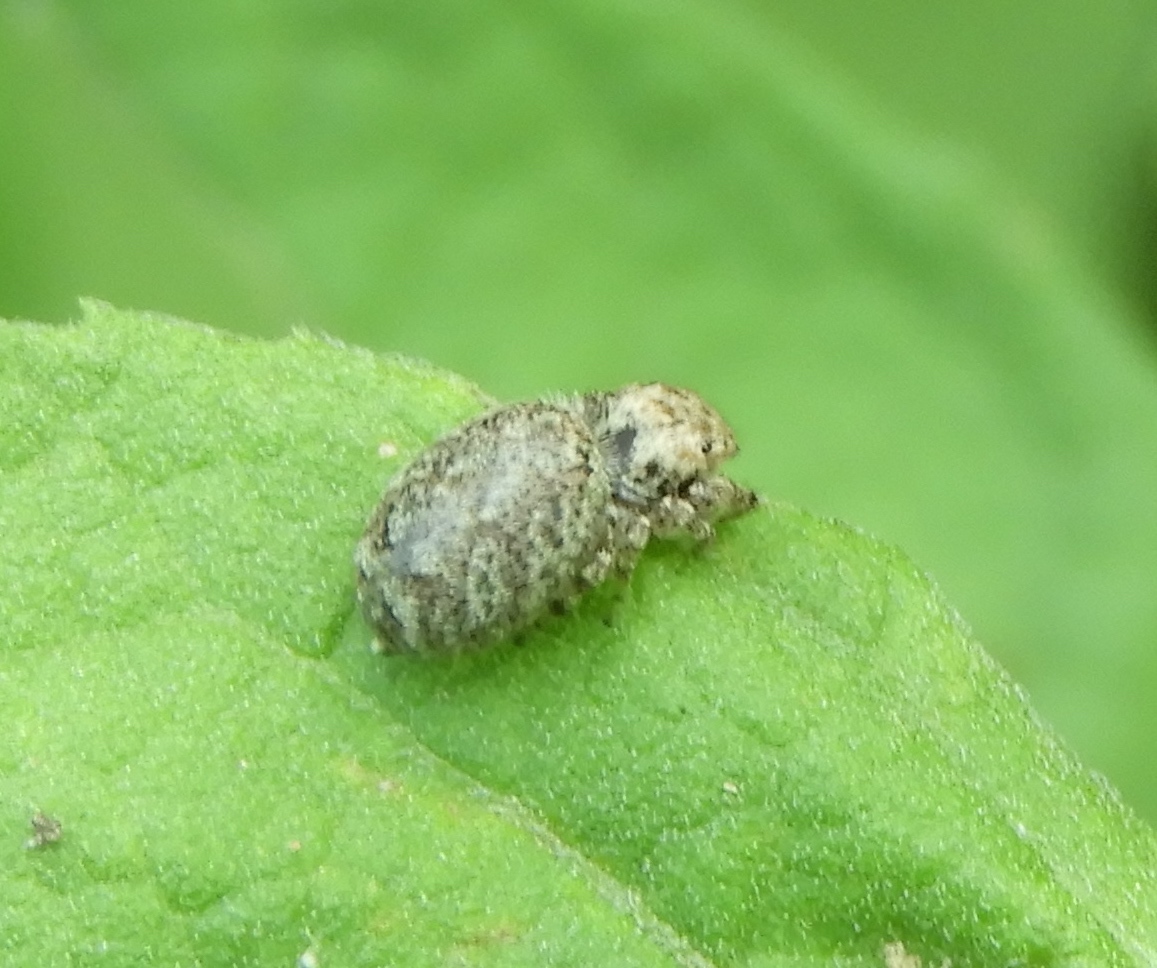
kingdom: Animalia
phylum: Arthropoda
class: Arachnida
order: Araneae
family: Salticidae
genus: Pelegrina
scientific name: Pelegrina
